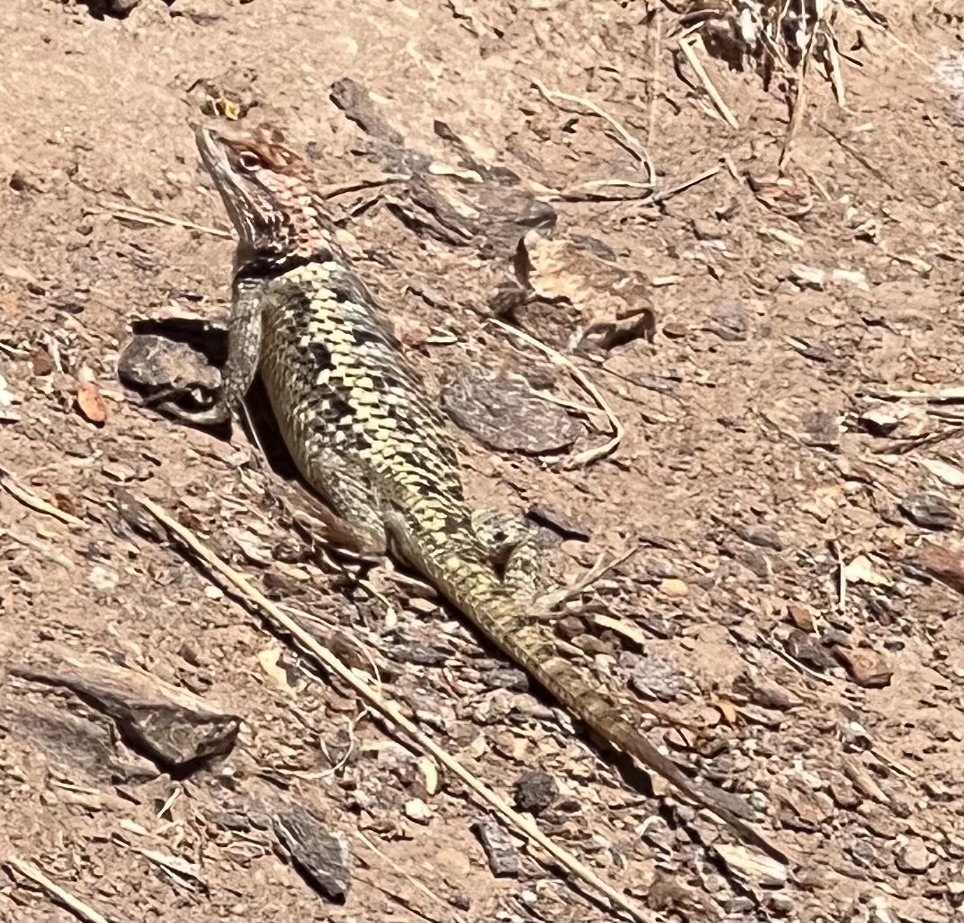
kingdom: Animalia
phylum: Chordata
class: Squamata
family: Phrynosomatidae
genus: Sceloporus
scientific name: Sceloporus magister
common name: Desert spiny lizard
